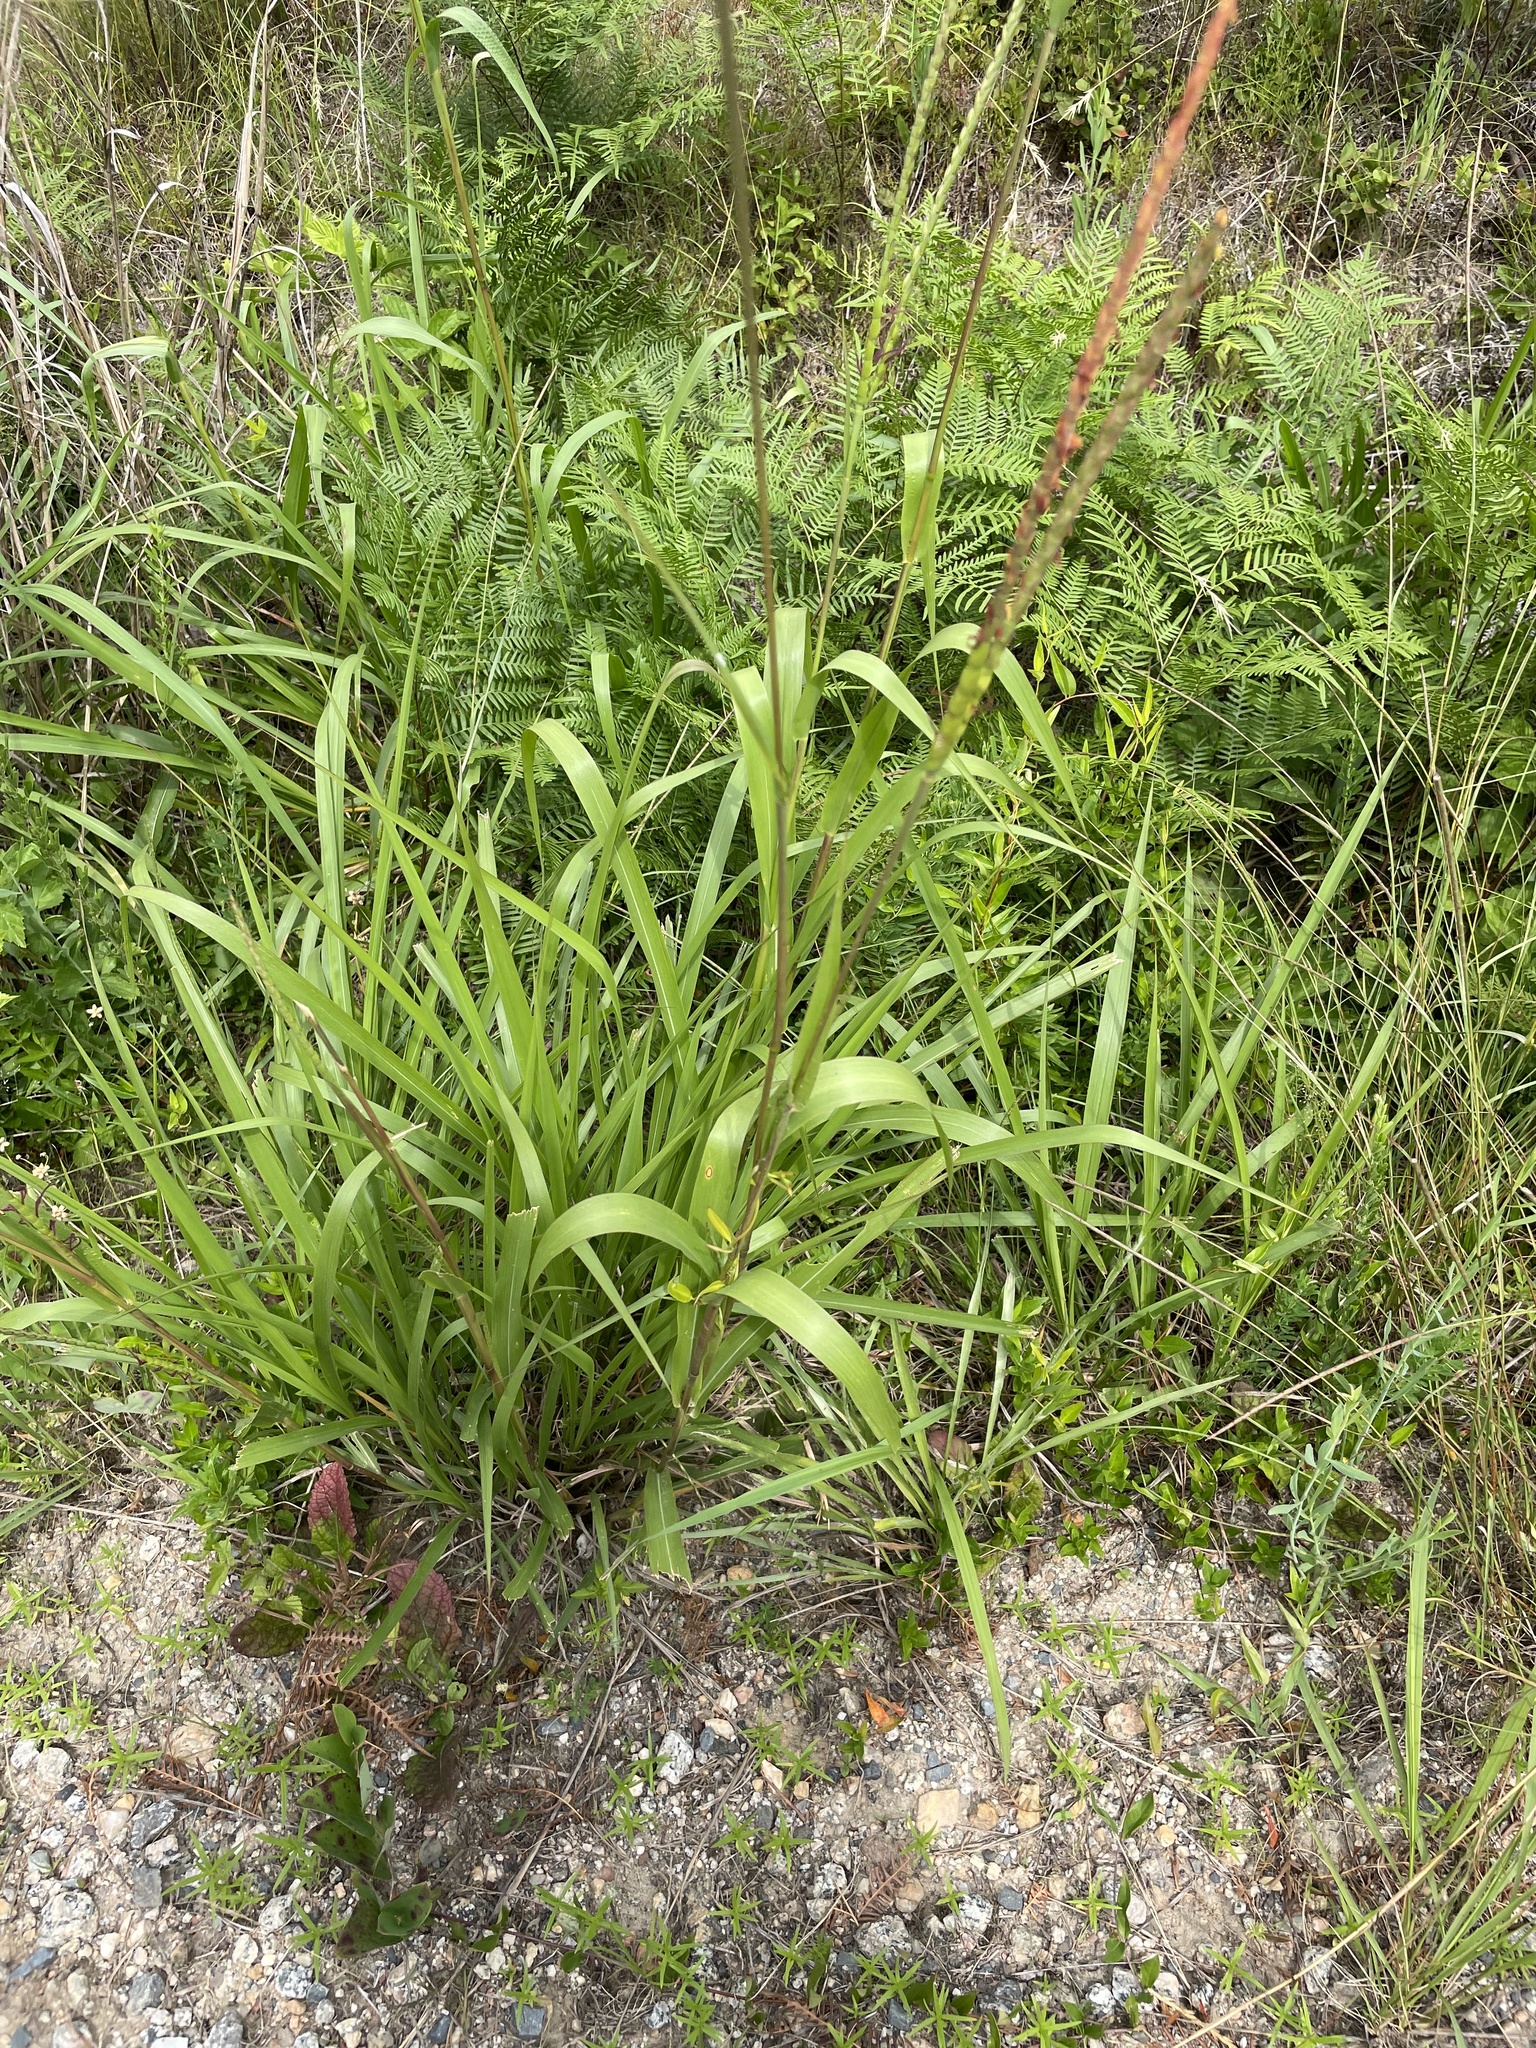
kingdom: Plantae
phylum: Tracheophyta
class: Liliopsida
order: Poales
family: Poaceae
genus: Tripsacum
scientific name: Tripsacum dactyloides
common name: Buffalo-grass
